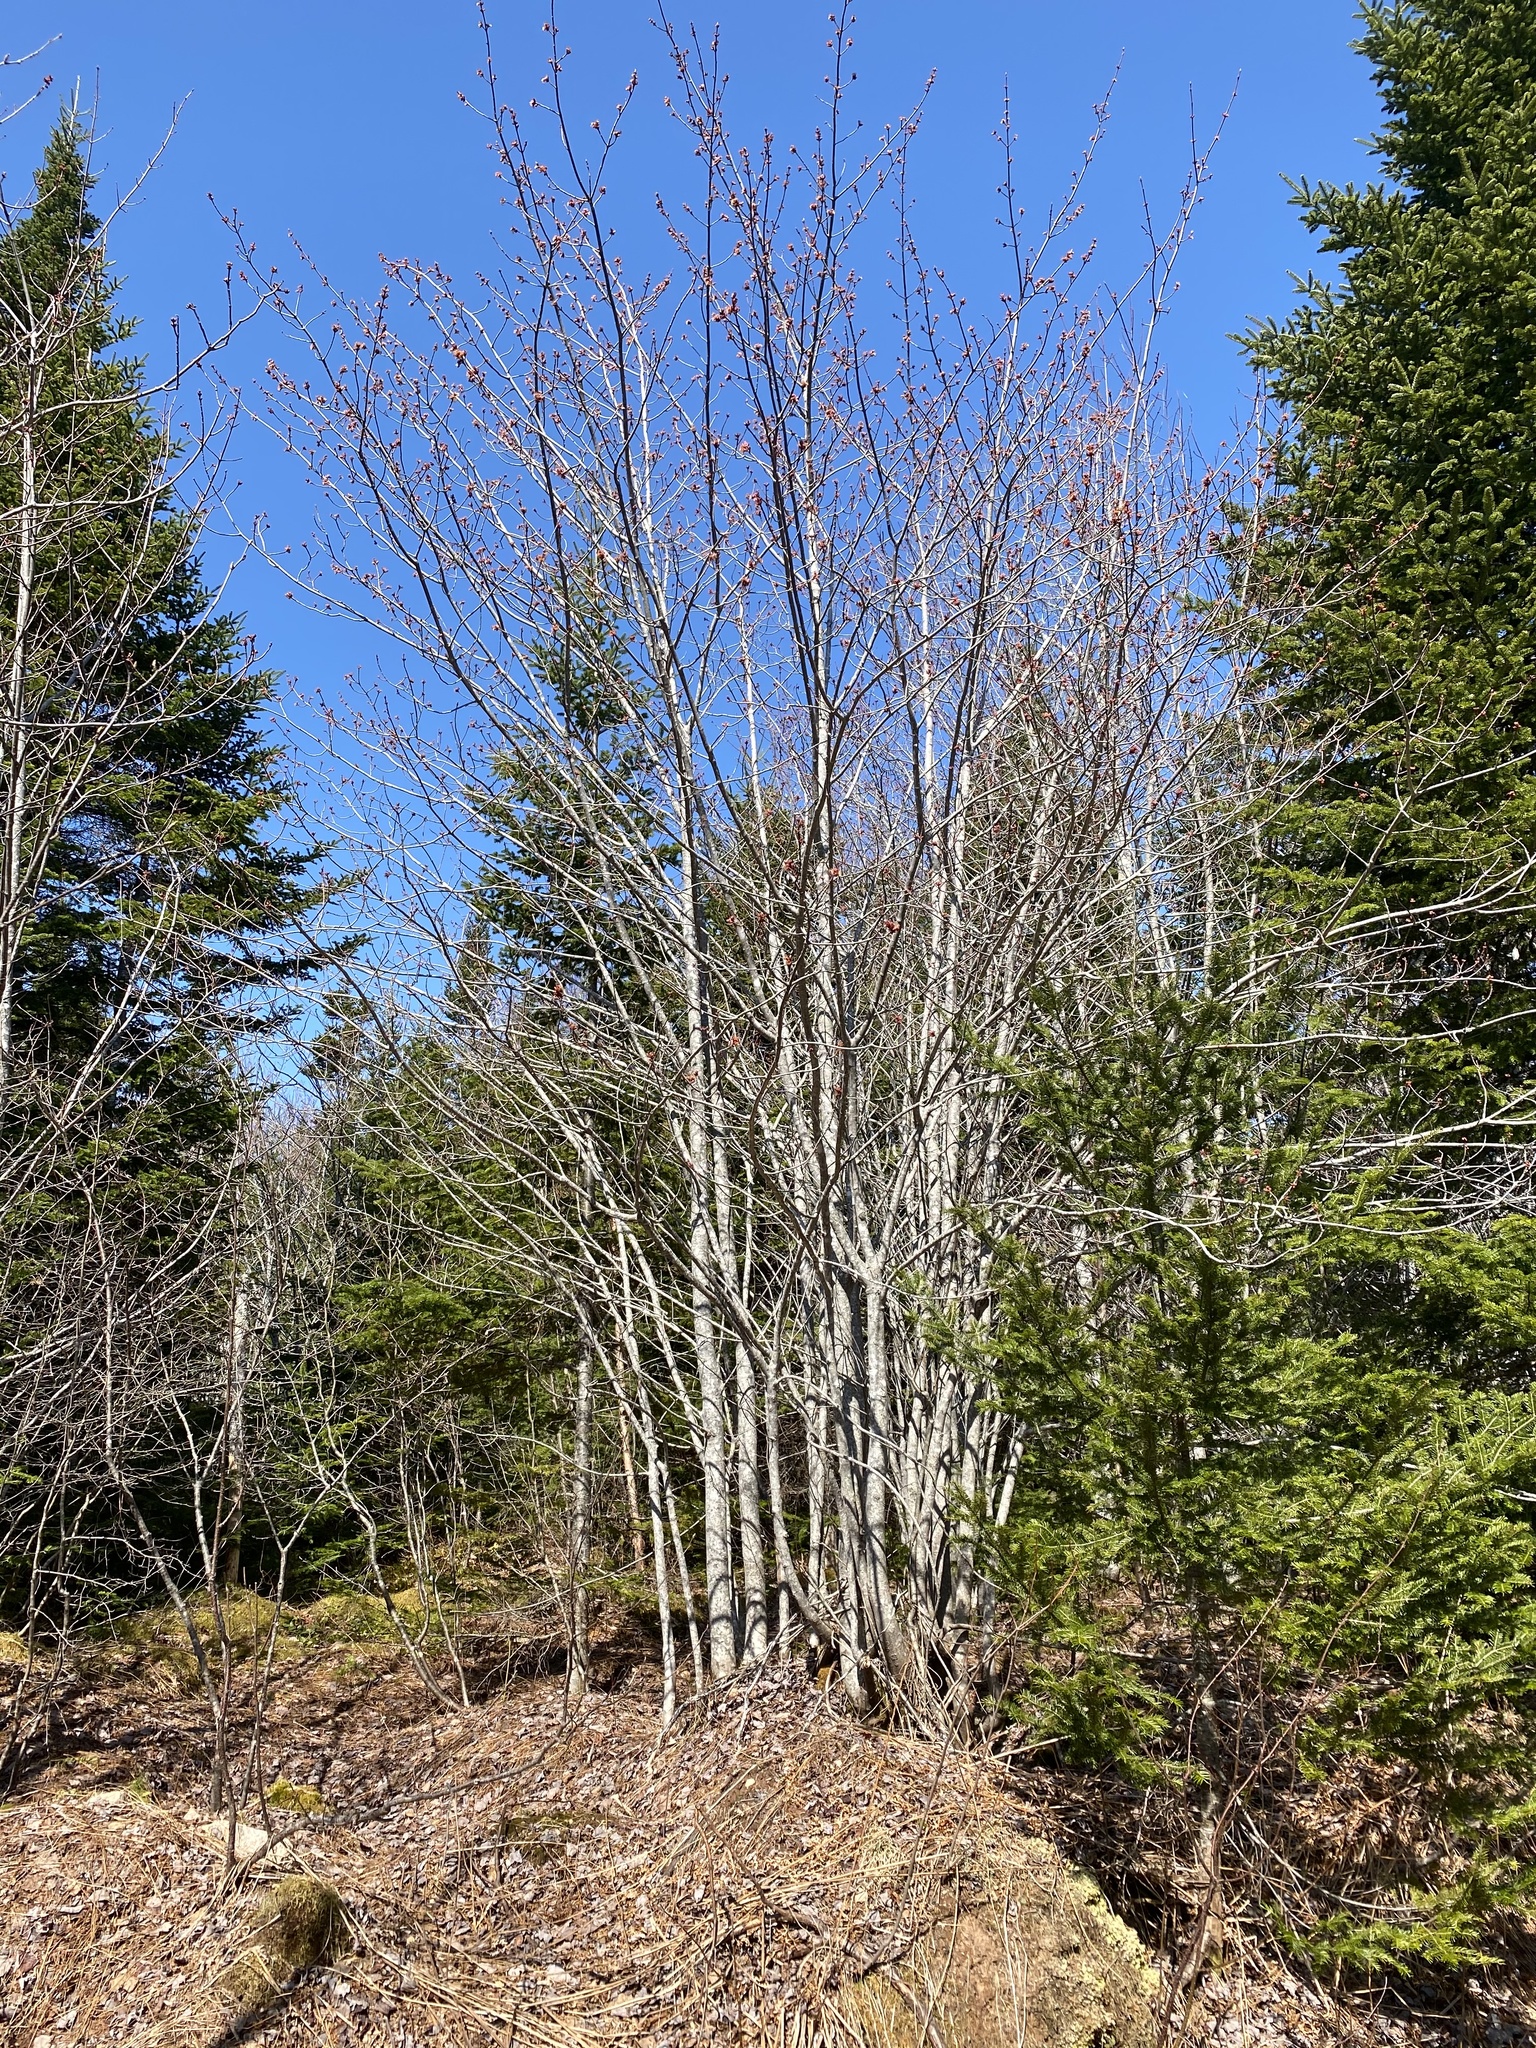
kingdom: Plantae
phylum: Tracheophyta
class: Magnoliopsida
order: Sapindales
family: Sapindaceae
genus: Acer
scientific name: Acer rubrum
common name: Red maple
